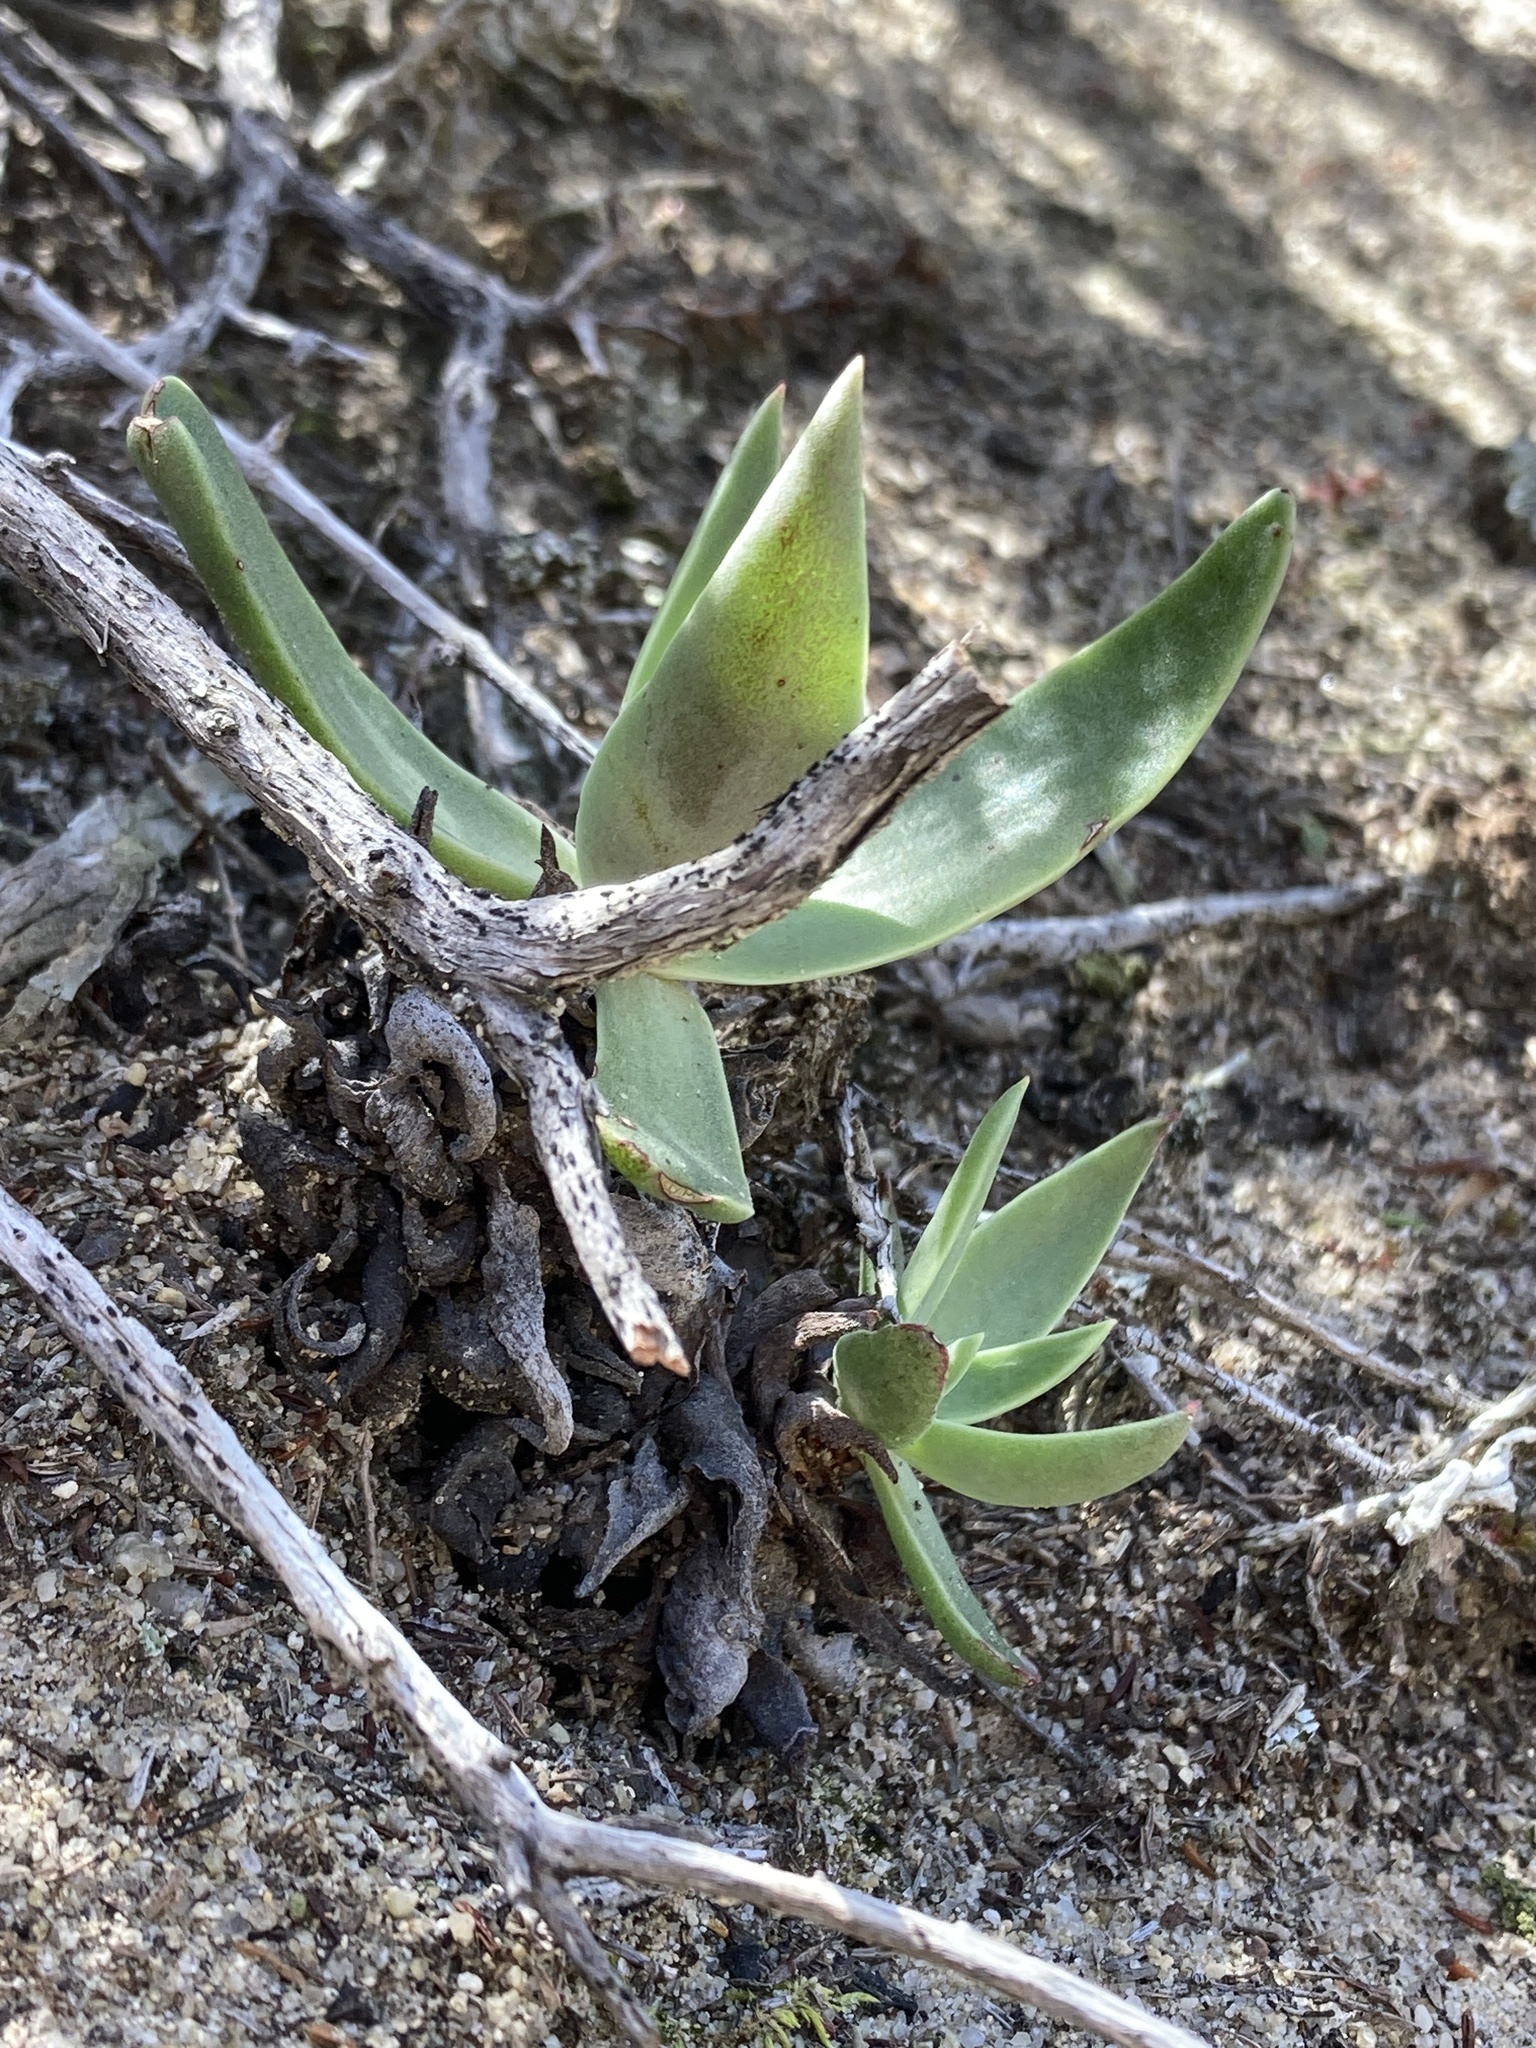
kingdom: Plantae
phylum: Tracheophyta
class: Magnoliopsida
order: Saxifragales
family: Crassulaceae
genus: Dudleya
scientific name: Dudleya lanceolata
